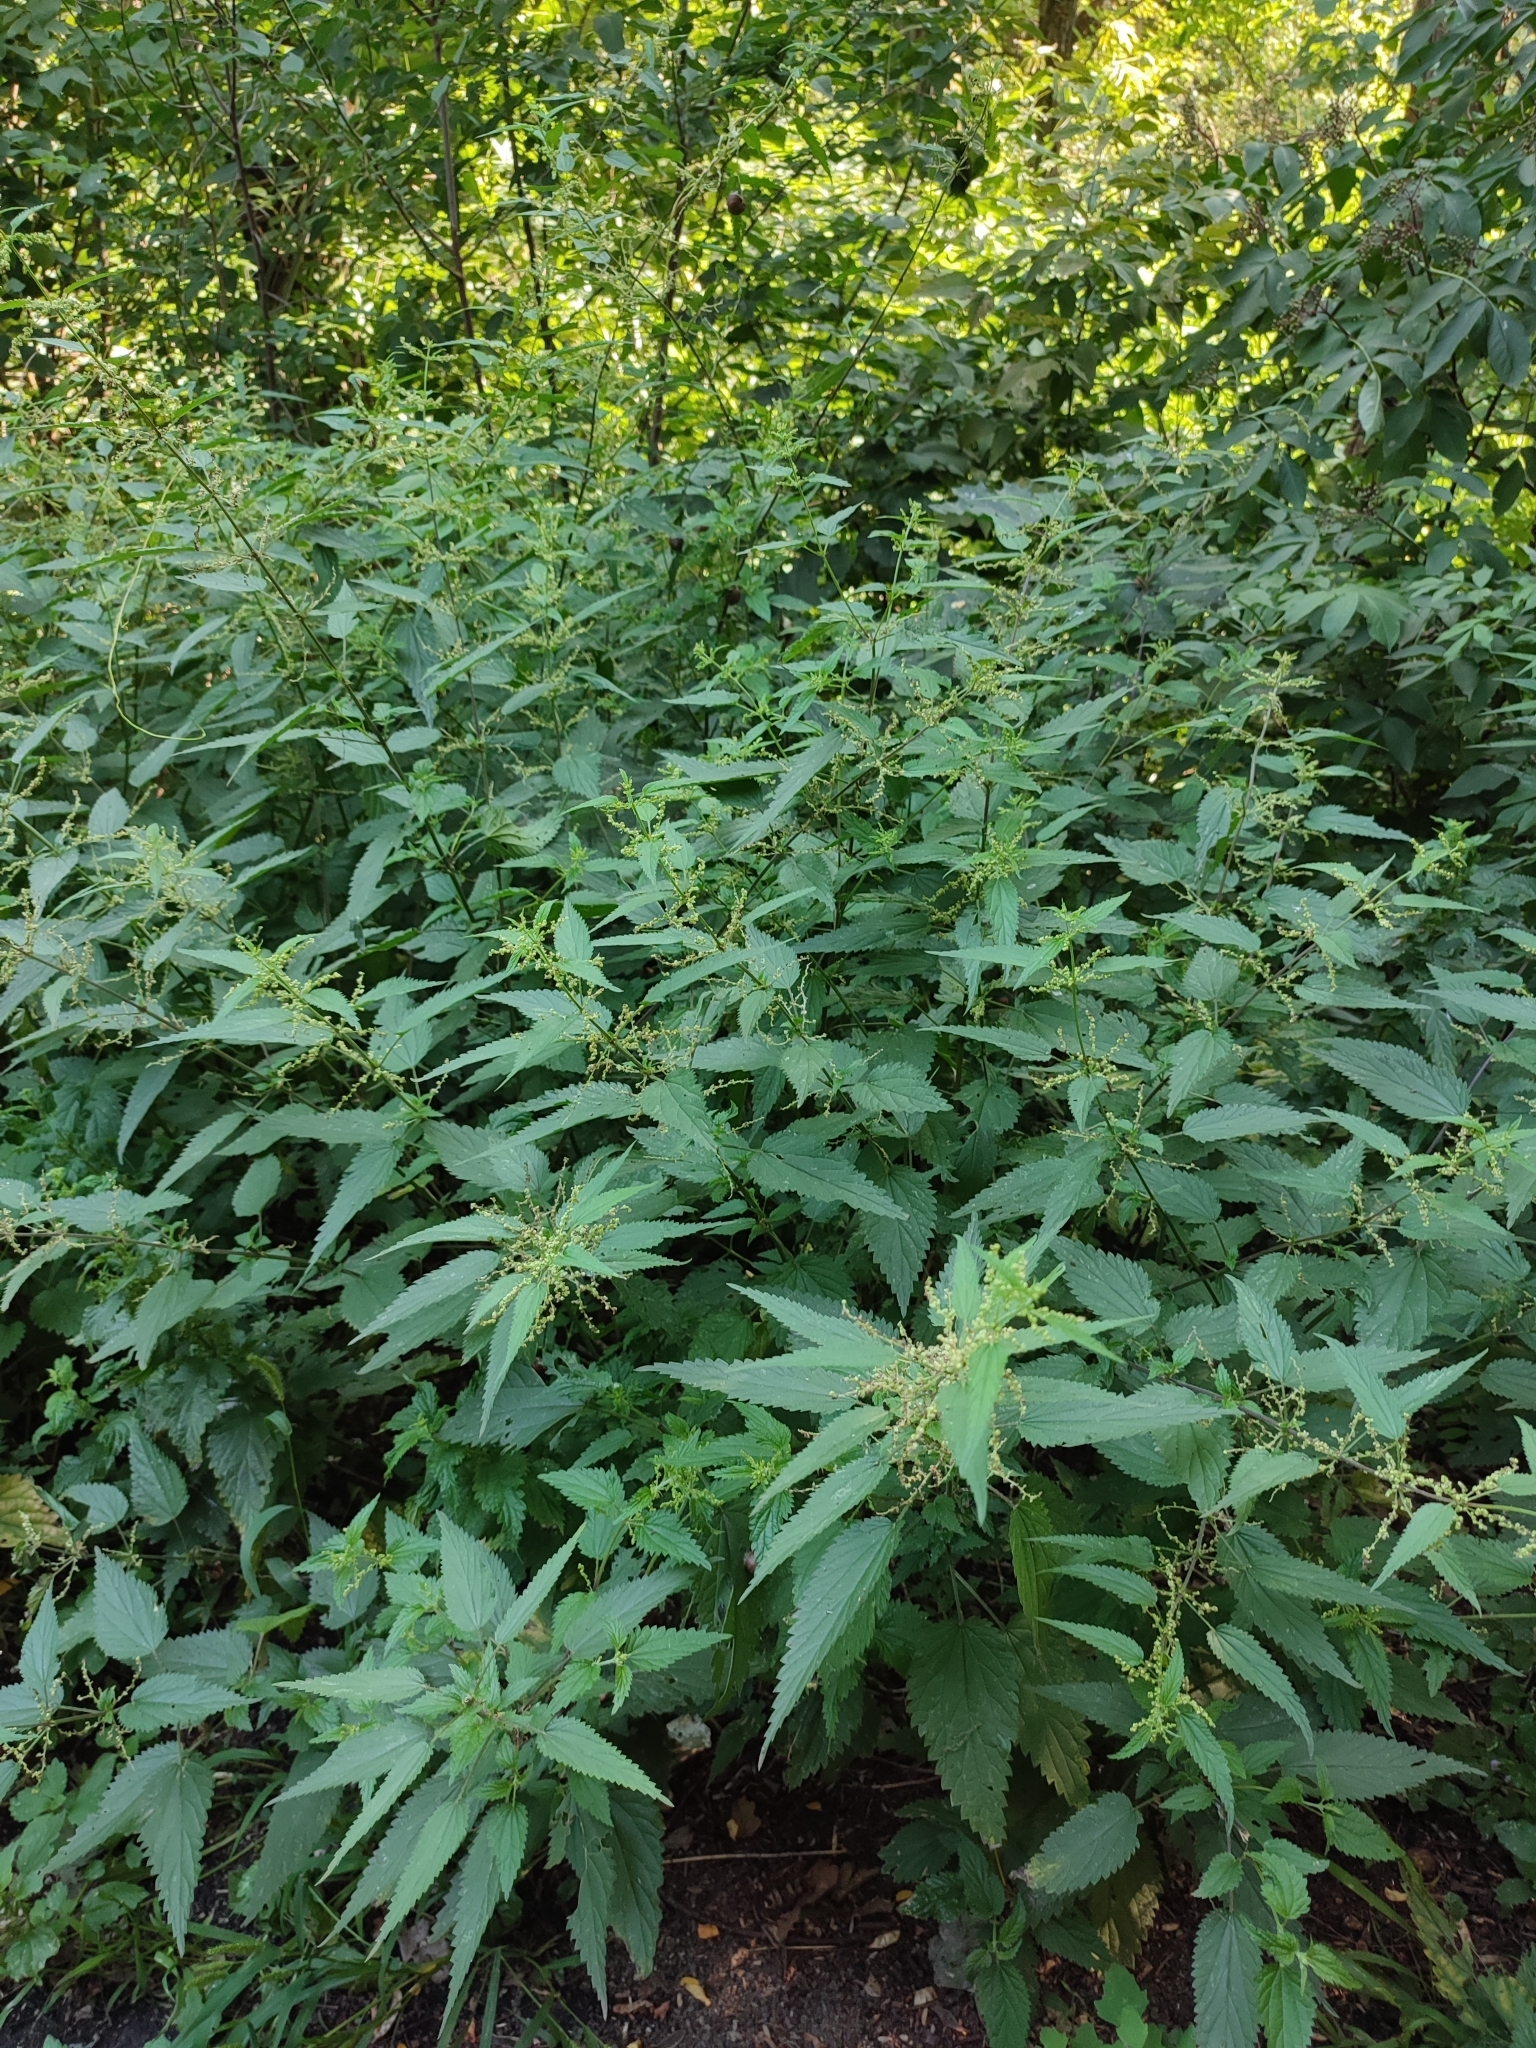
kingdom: Plantae
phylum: Tracheophyta
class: Magnoliopsida
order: Rosales
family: Urticaceae
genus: Urtica
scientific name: Urtica dioica
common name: Common nettle
